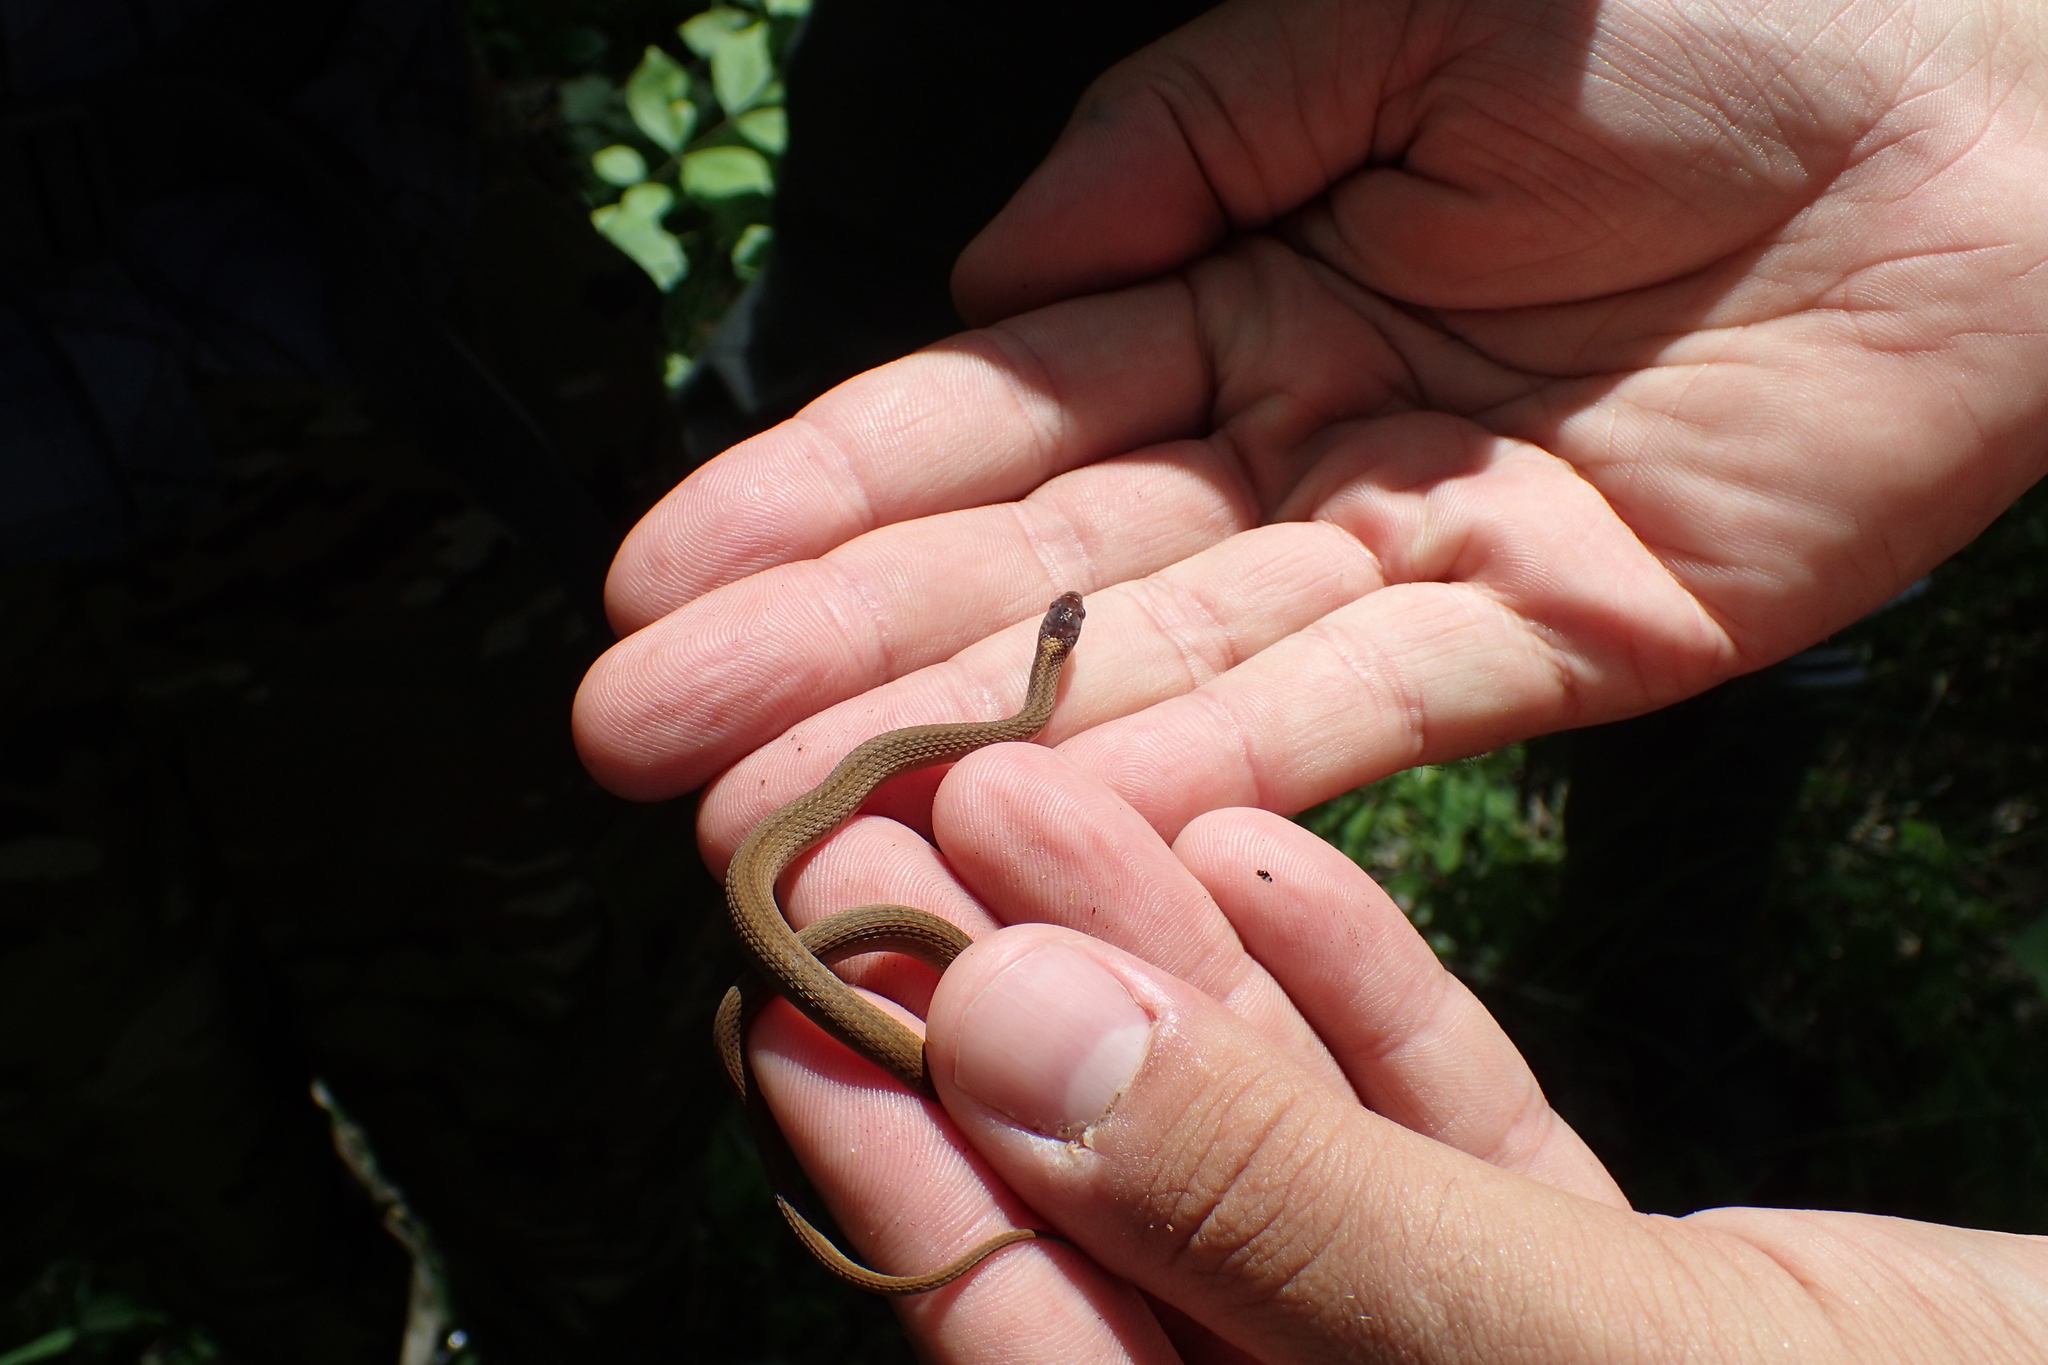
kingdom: Animalia
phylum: Chordata
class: Squamata
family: Colubridae
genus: Storeria
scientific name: Storeria occipitomaculata
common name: Redbelly snake
